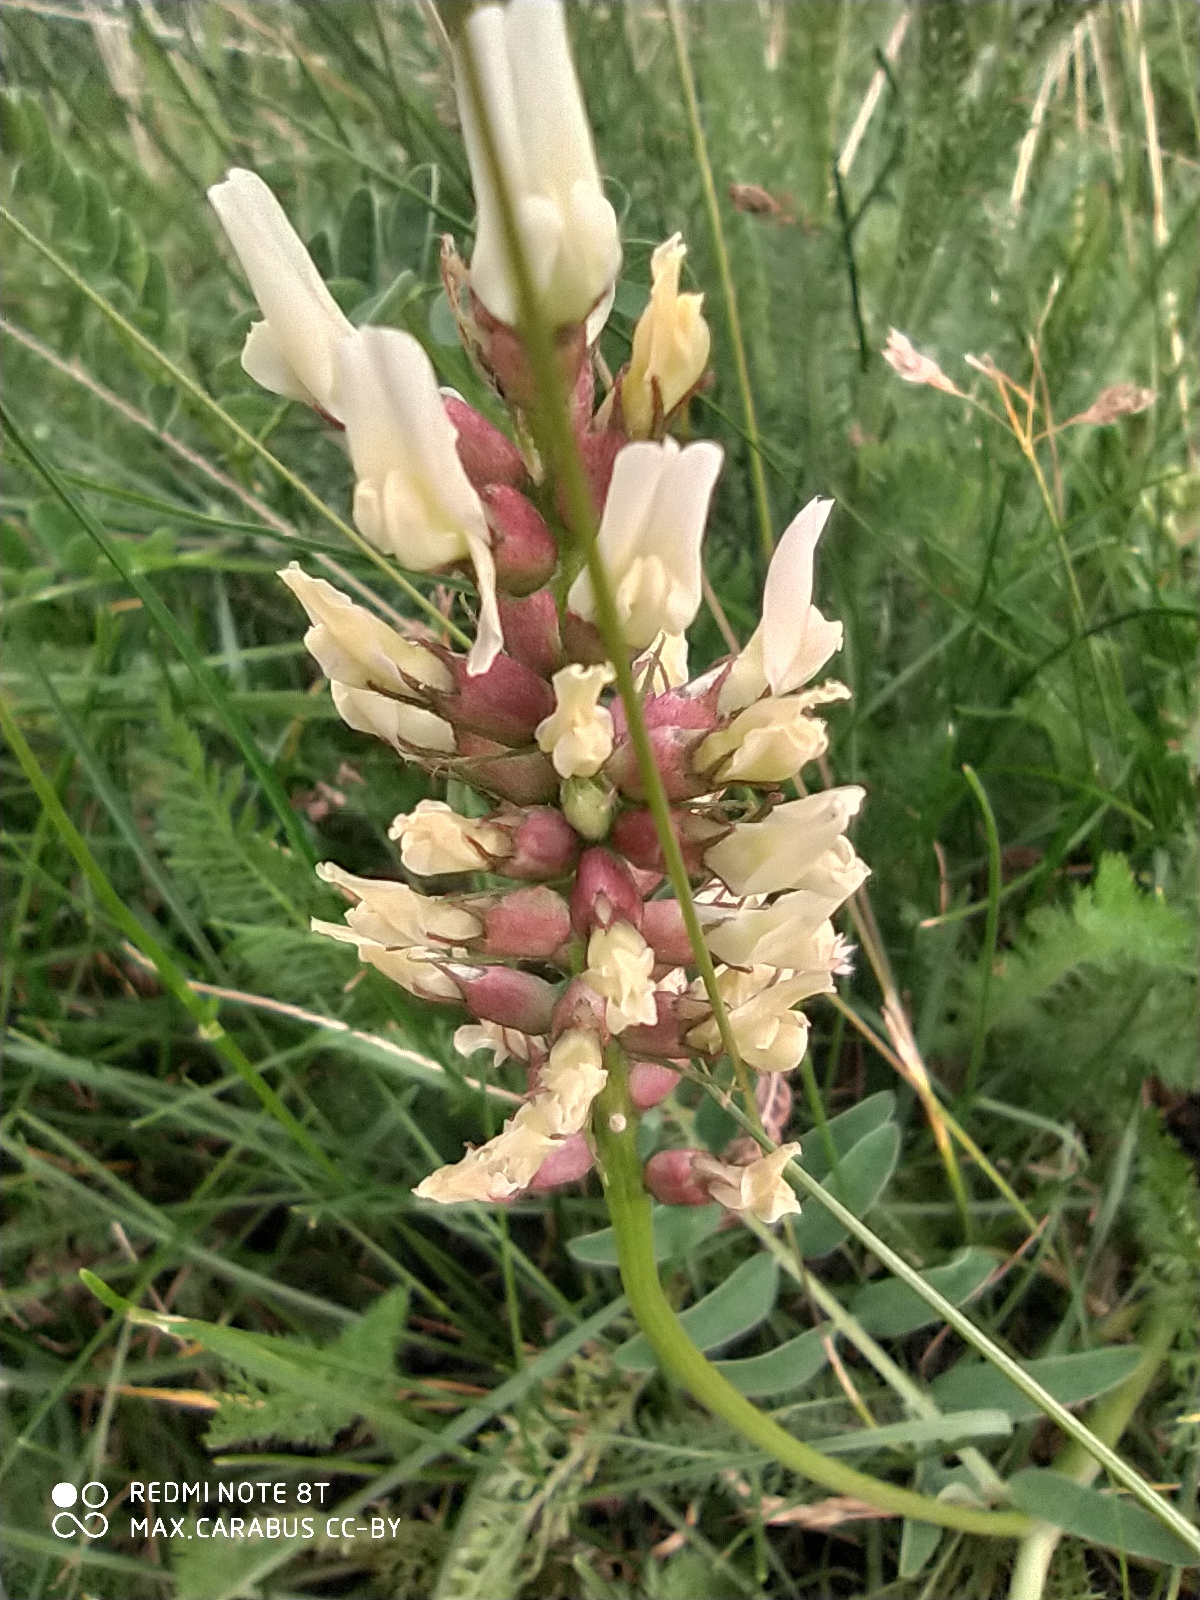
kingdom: Plantae
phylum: Tracheophyta
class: Magnoliopsida
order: Fabales
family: Fabaceae
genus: Astragalus
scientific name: Astragalus cicer
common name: Chick-pea milk-vetch
